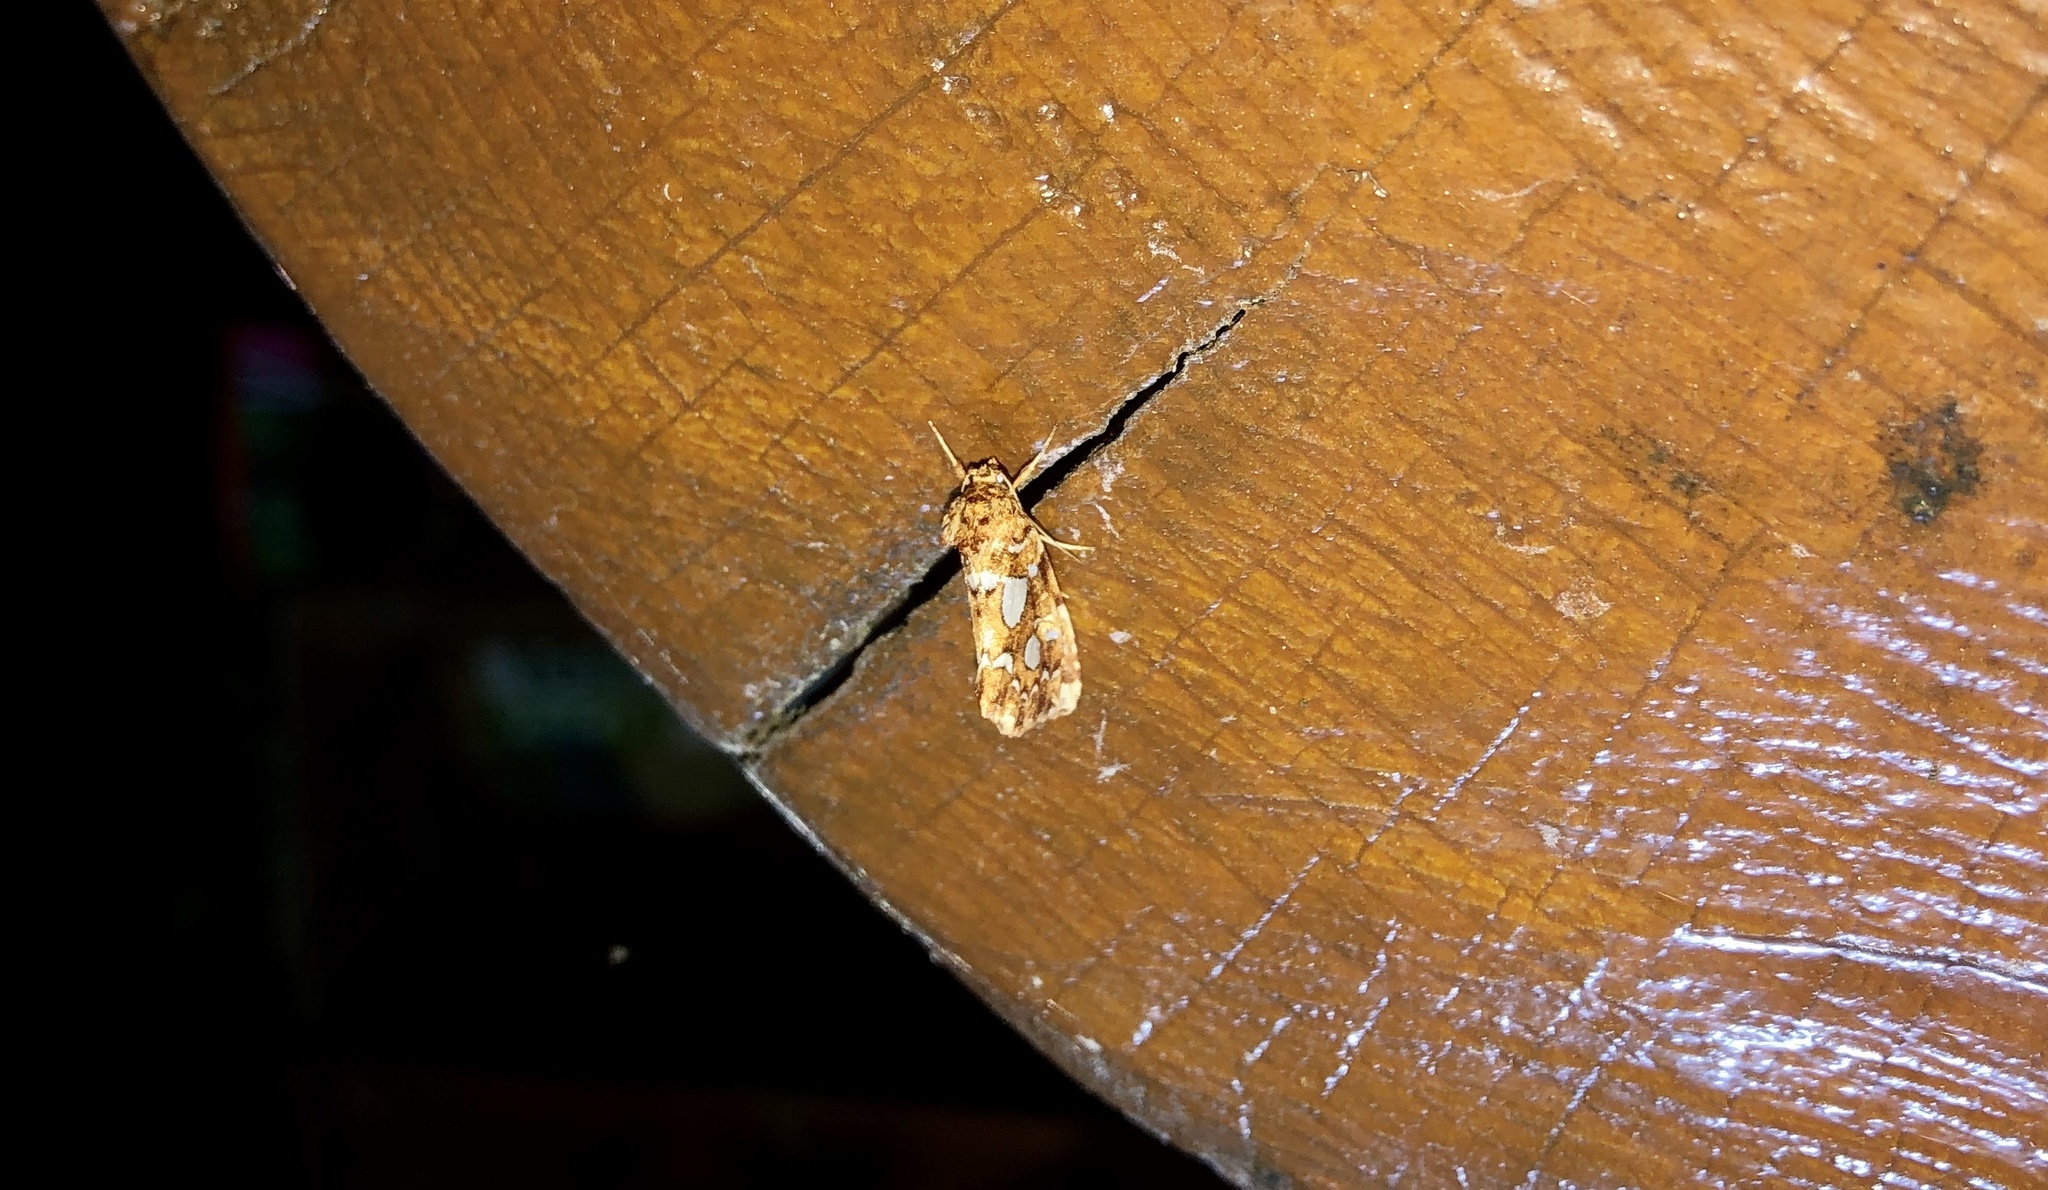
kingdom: Animalia
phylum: Arthropoda
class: Insecta
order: Lepidoptera
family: Noctuidae
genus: Callopistria
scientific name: Callopistria cordata
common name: Silver-spotted fern moth
